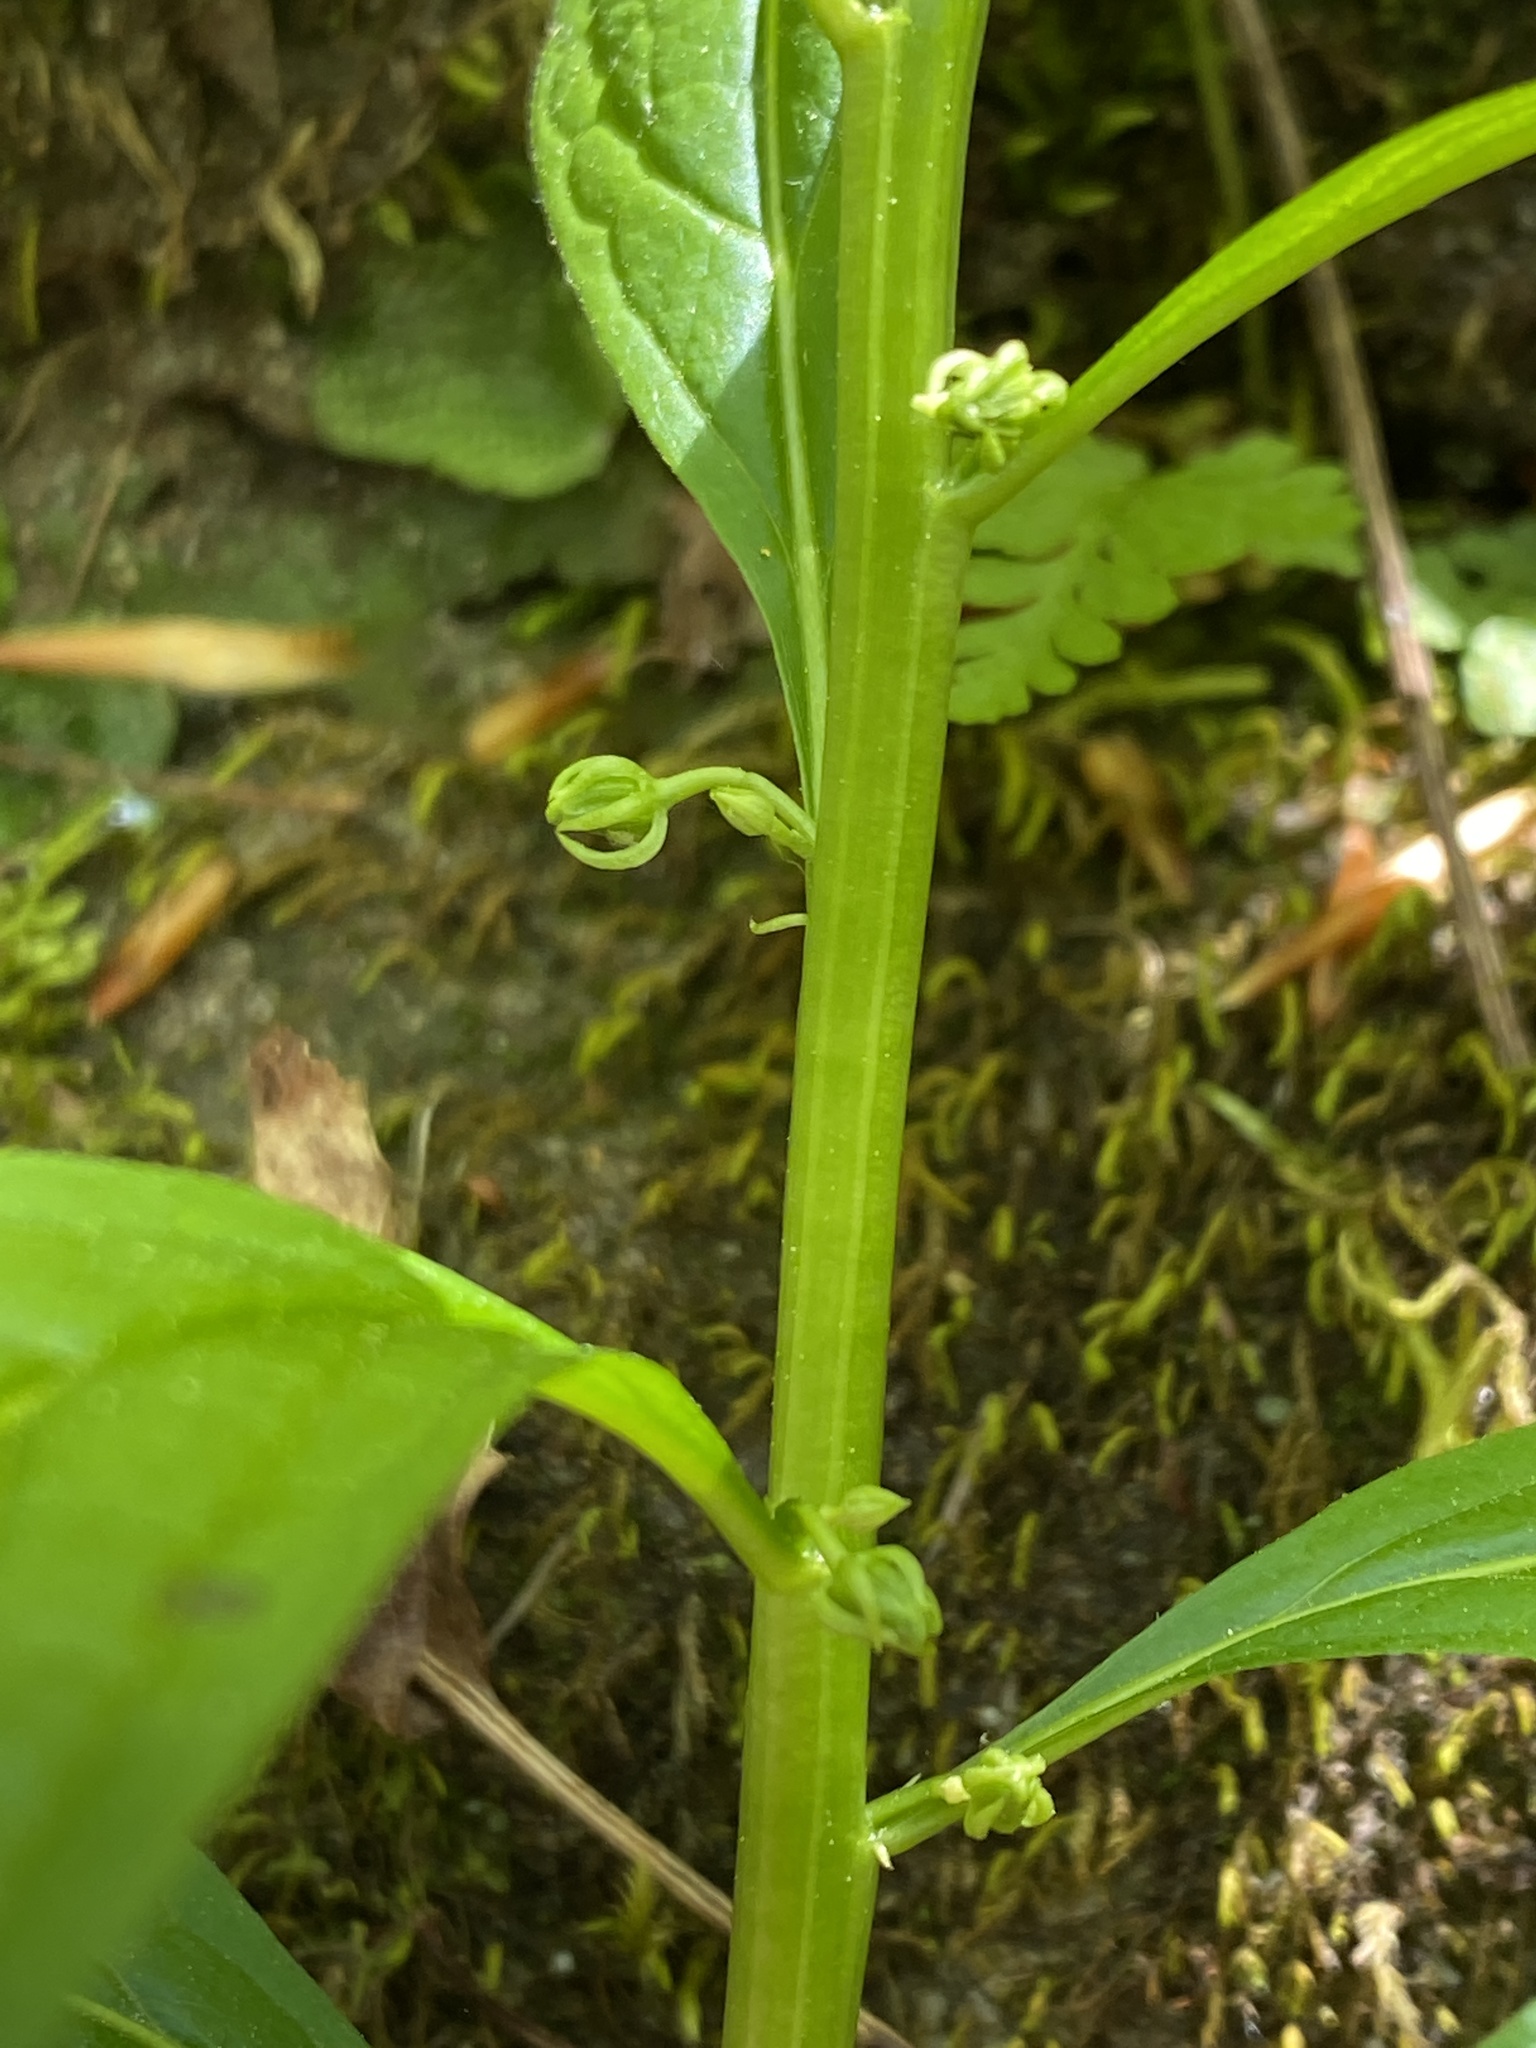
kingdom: Plantae
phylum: Tracheophyta
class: Magnoliopsida
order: Malpighiales
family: Violaceae
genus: Cubelium
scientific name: Cubelium concolor
